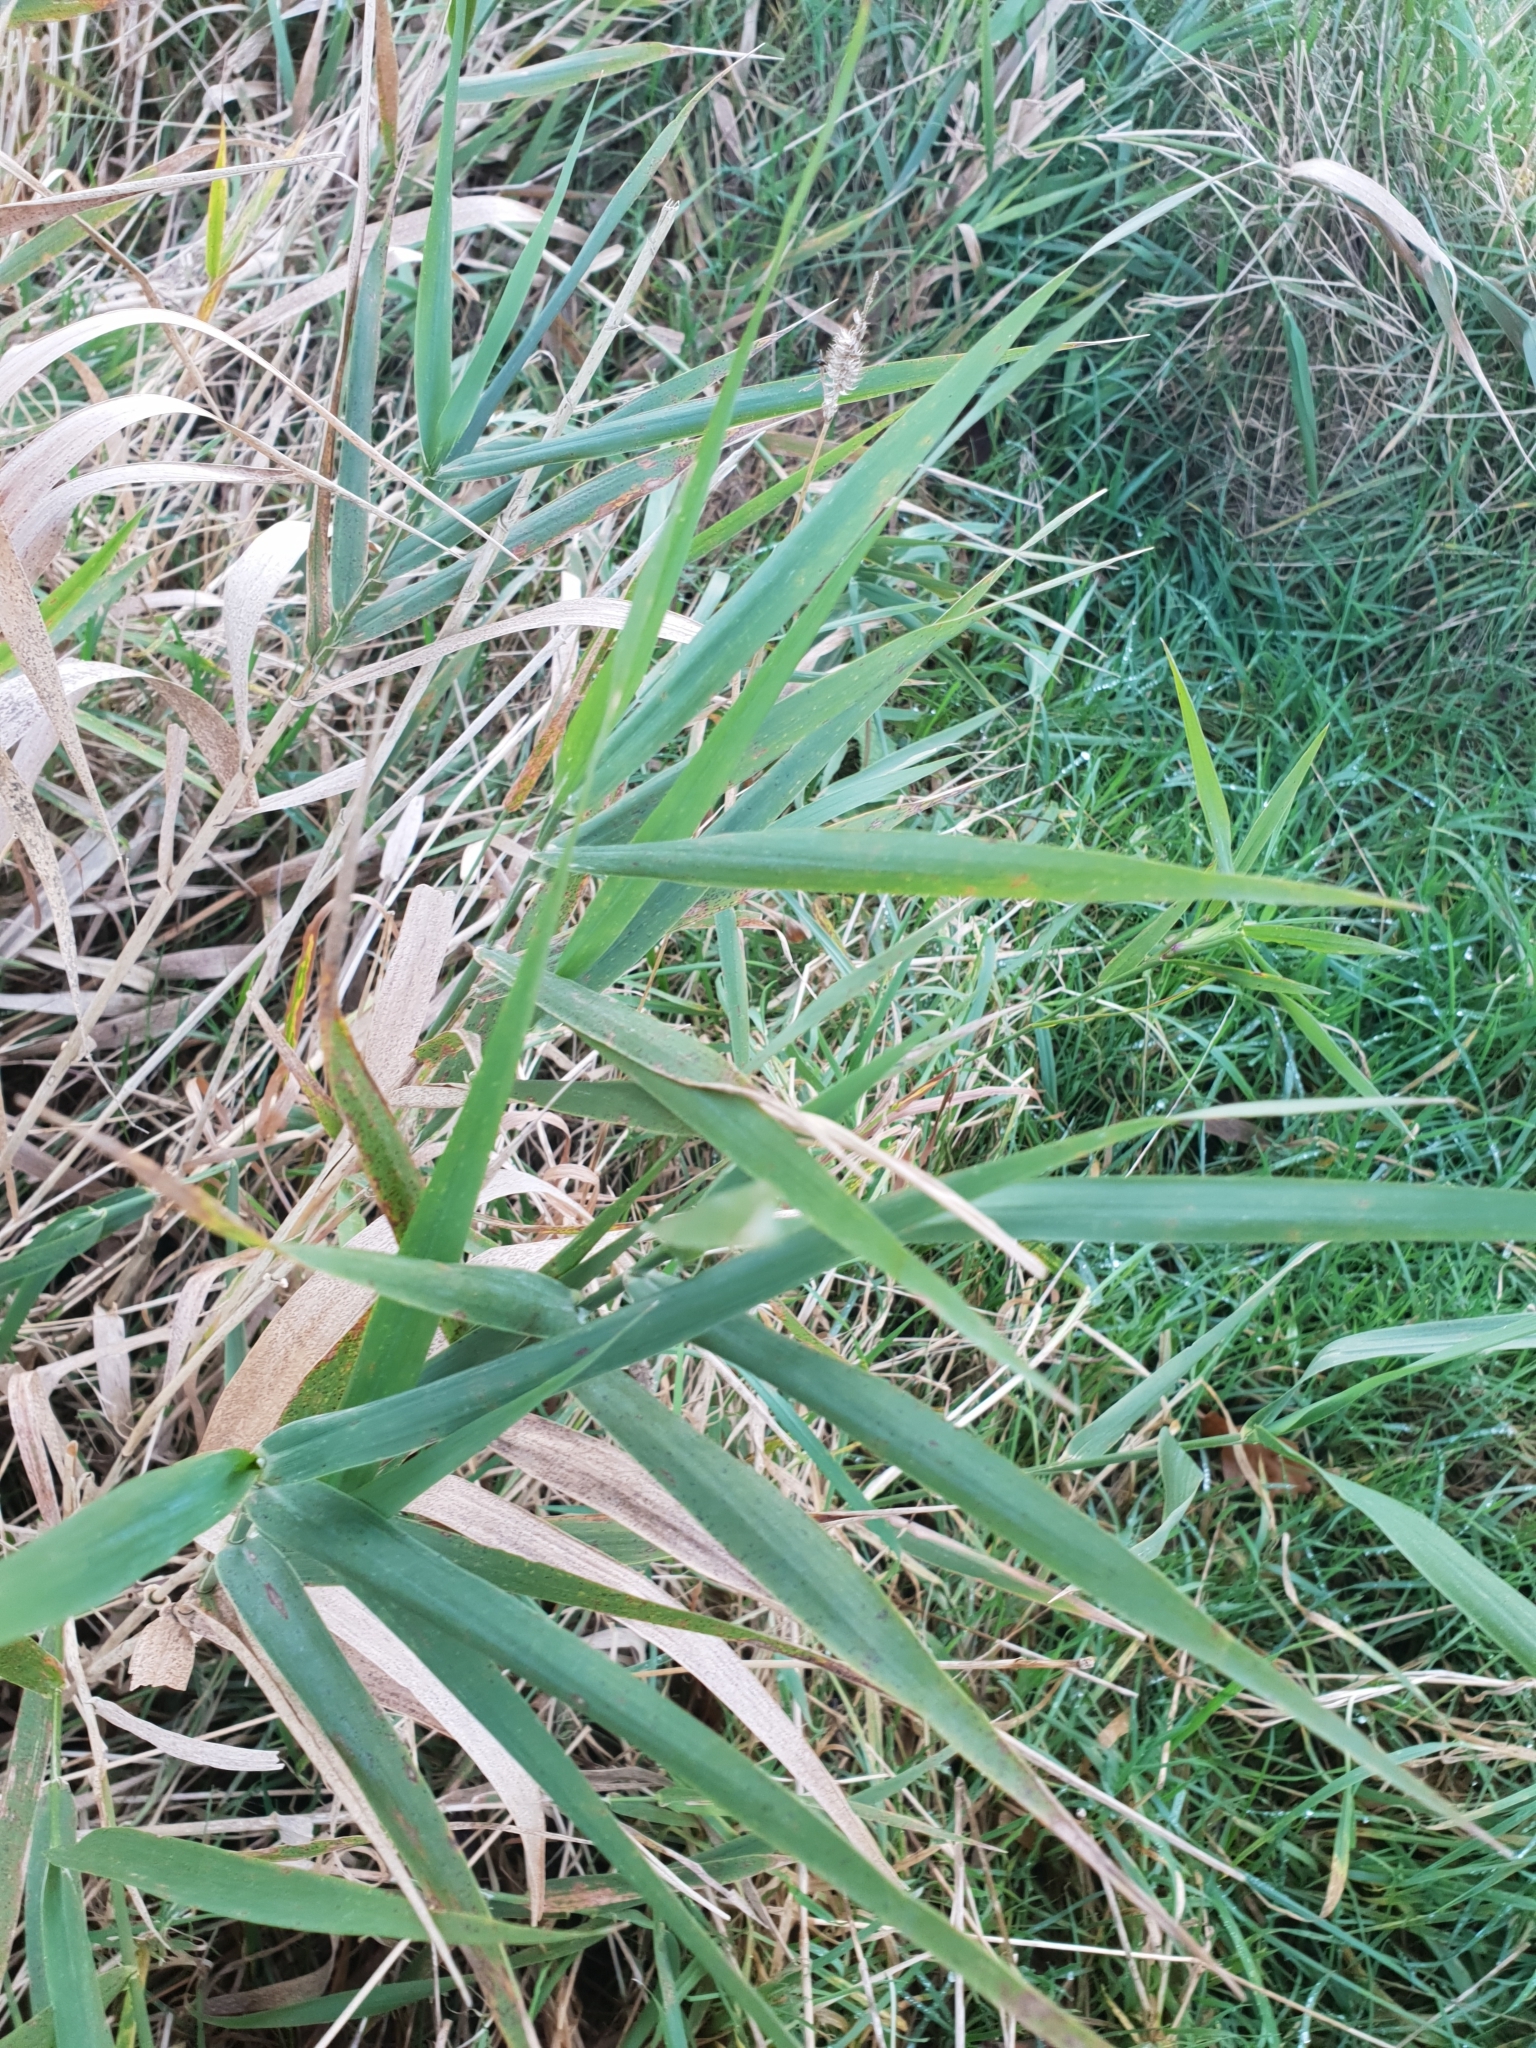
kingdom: Plantae
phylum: Tracheophyta
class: Liliopsida
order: Poales
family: Poaceae
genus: Phragmites
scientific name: Phragmites australis
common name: Common reed
